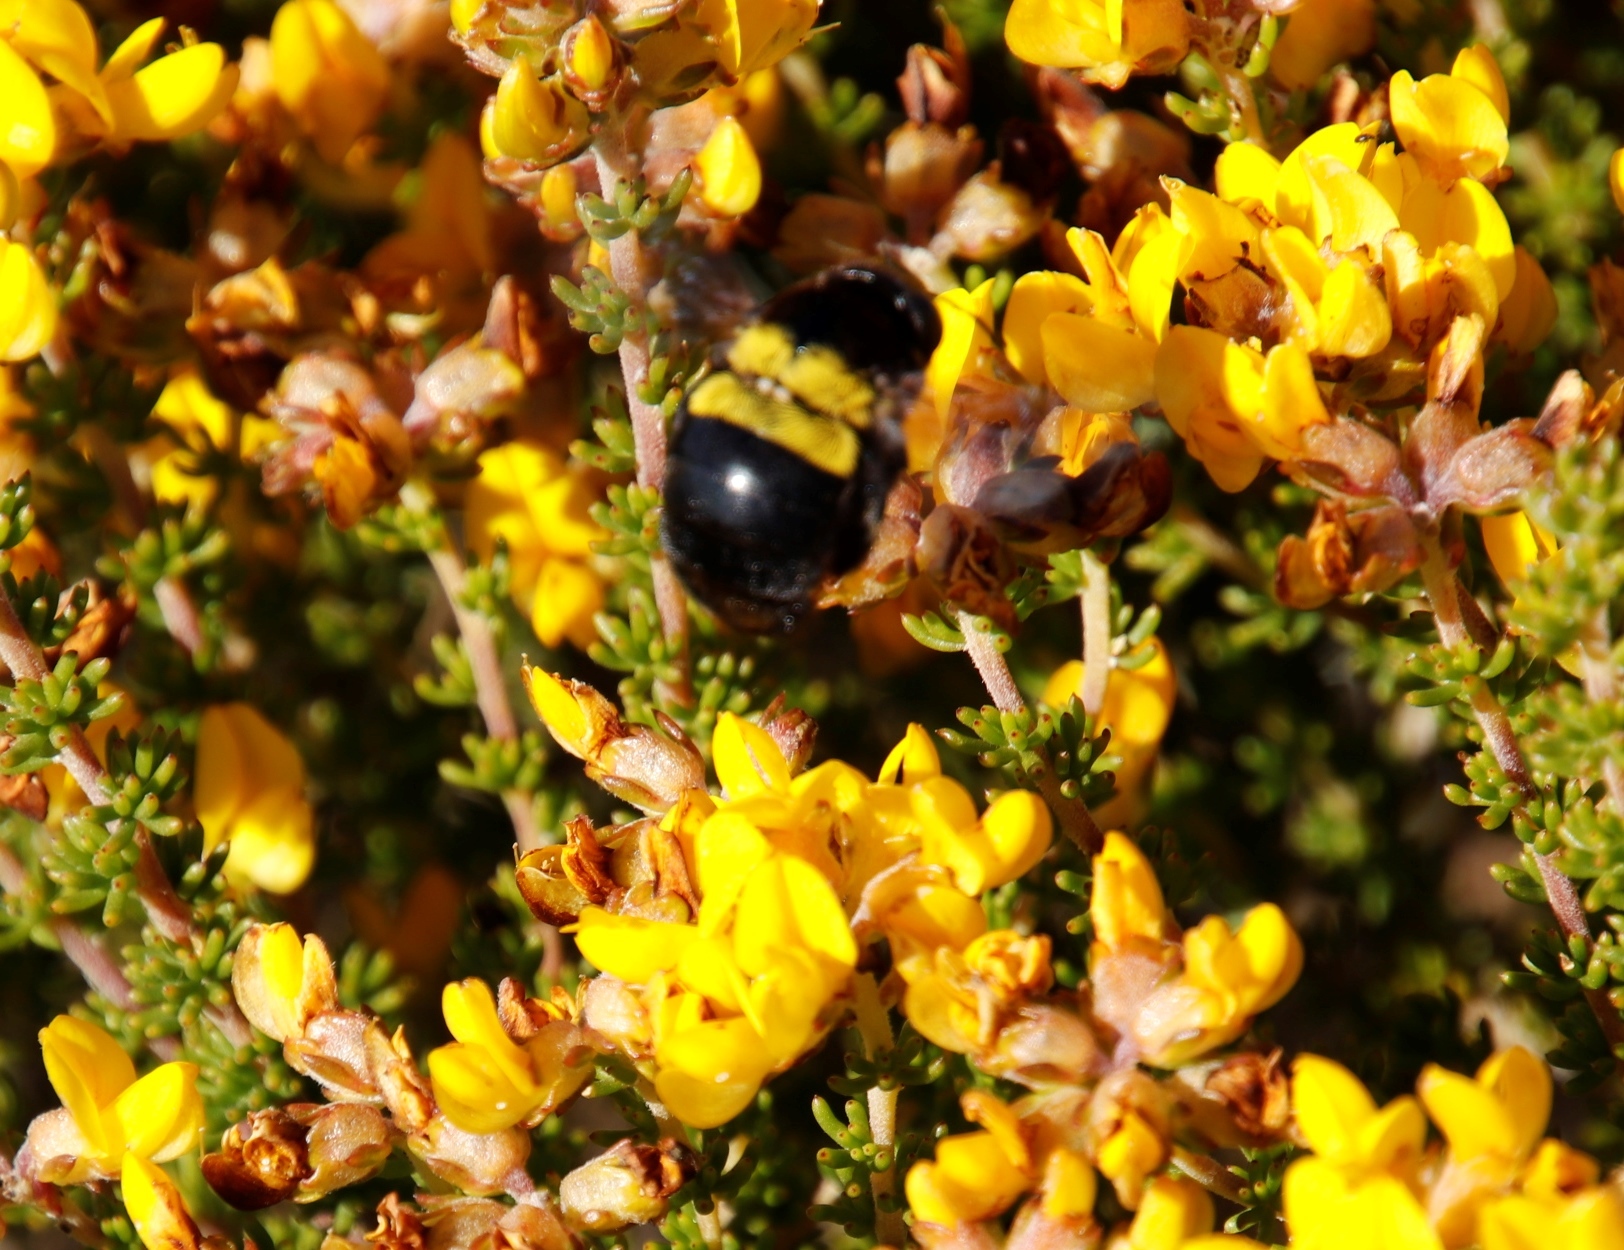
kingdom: Animalia
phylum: Arthropoda
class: Insecta
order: Hymenoptera
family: Apidae
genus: Xylocopa
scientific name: Xylocopa caffra
